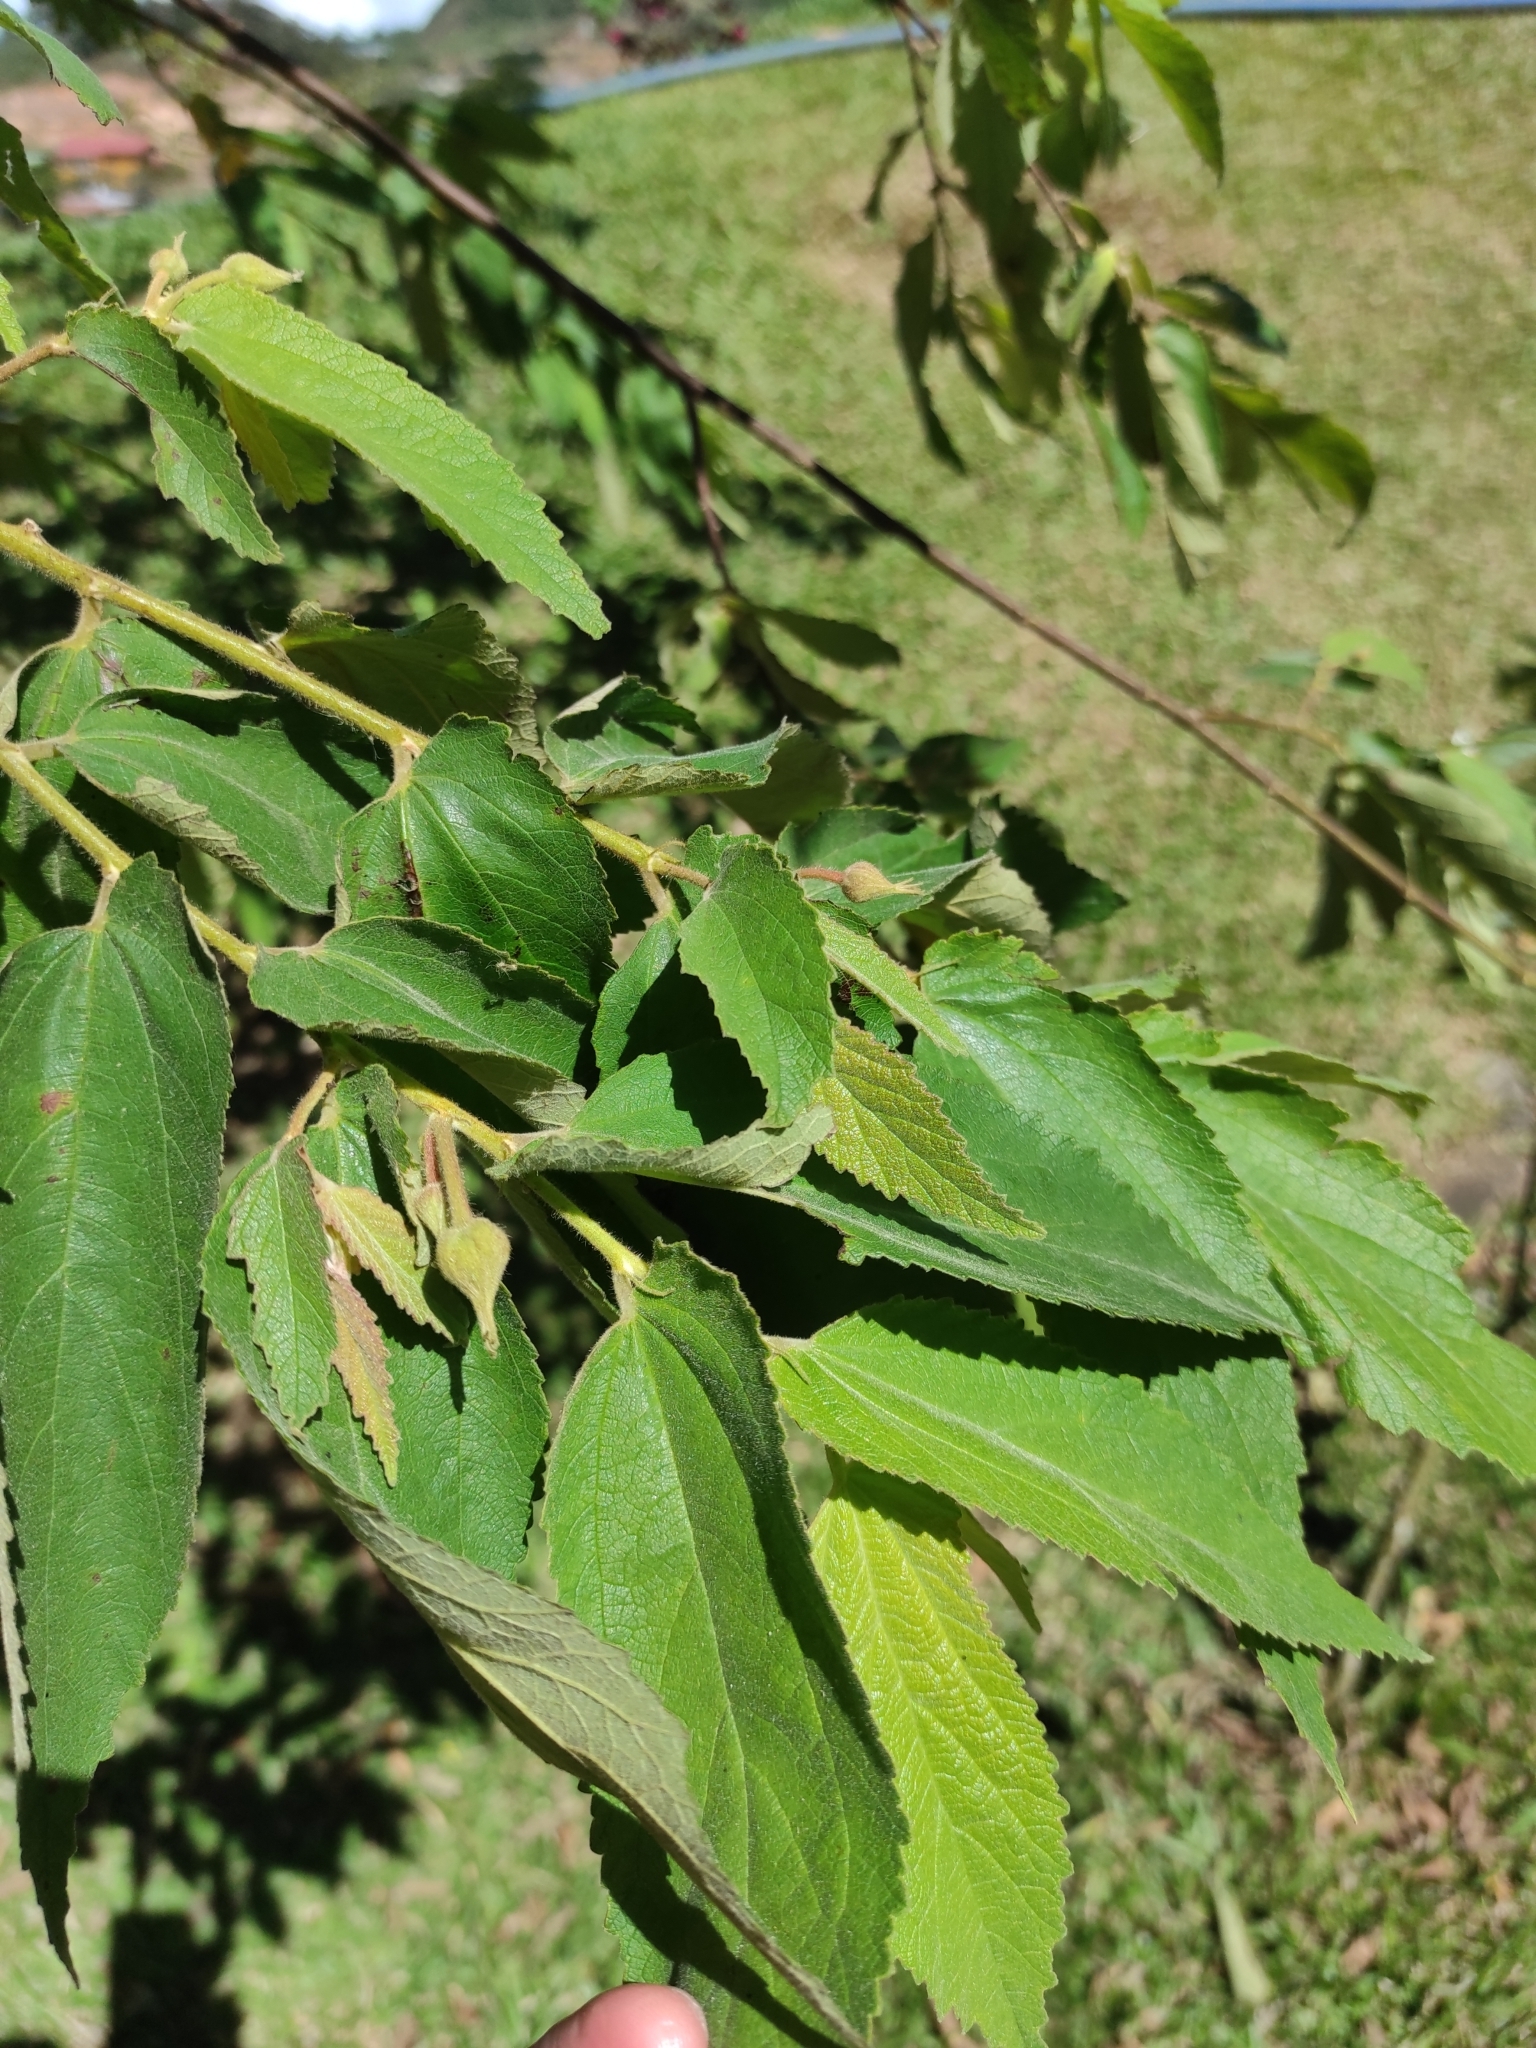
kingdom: Plantae
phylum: Tracheophyta
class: Magnoliopsida
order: Malvales
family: Muntingiaceae
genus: Muntingia
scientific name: Muntingia calabura
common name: Strawberrytree
